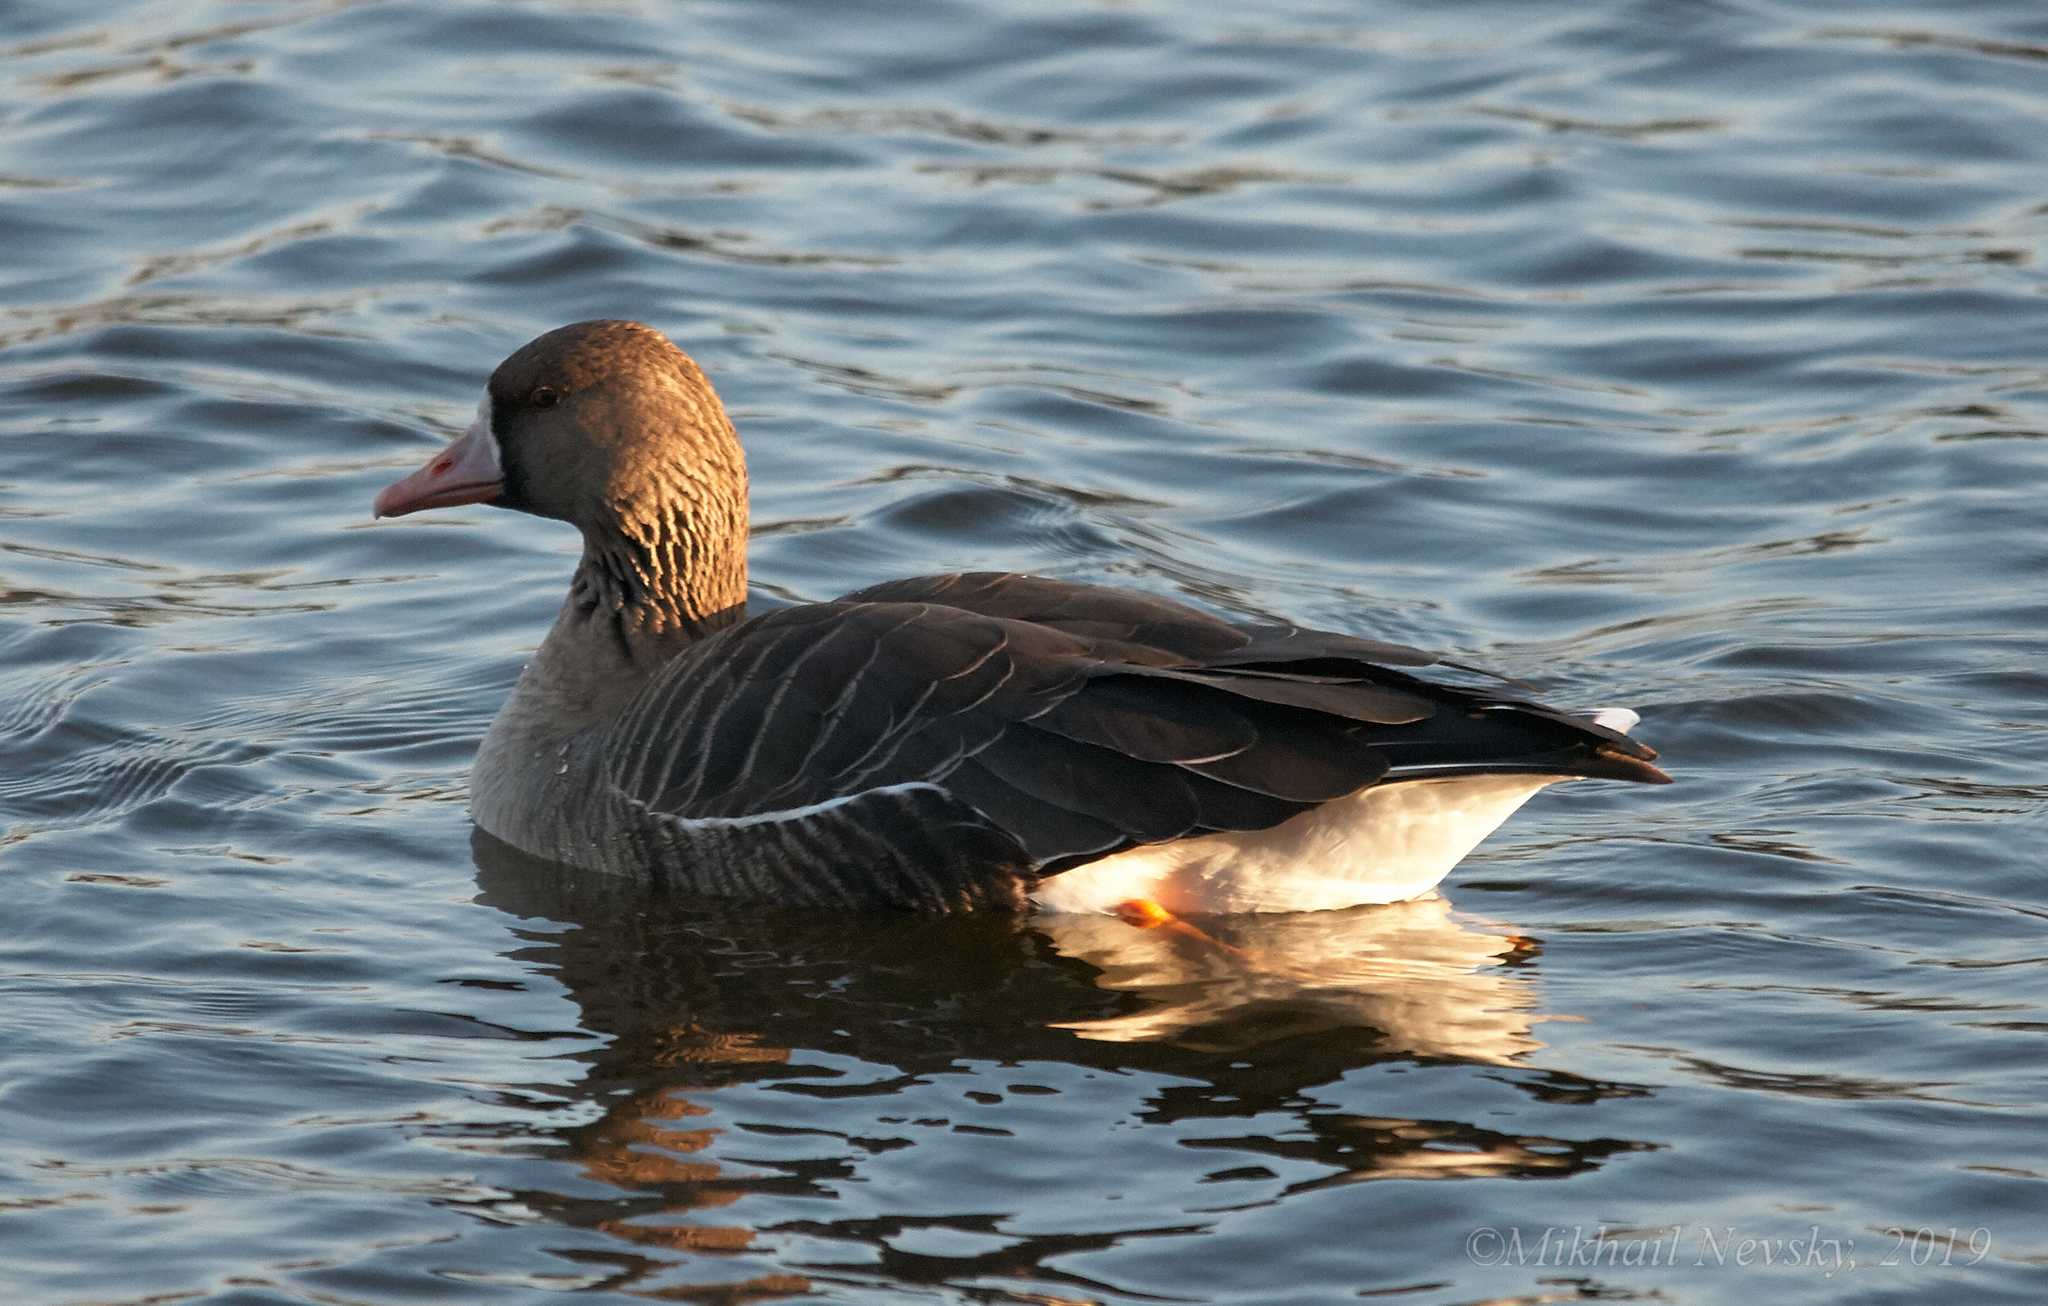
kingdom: Animalia
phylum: Chordata
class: Aves
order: Anseriformes
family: Anatidae
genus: Anser
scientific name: Anser albifrons
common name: Greater white-fronted goose
